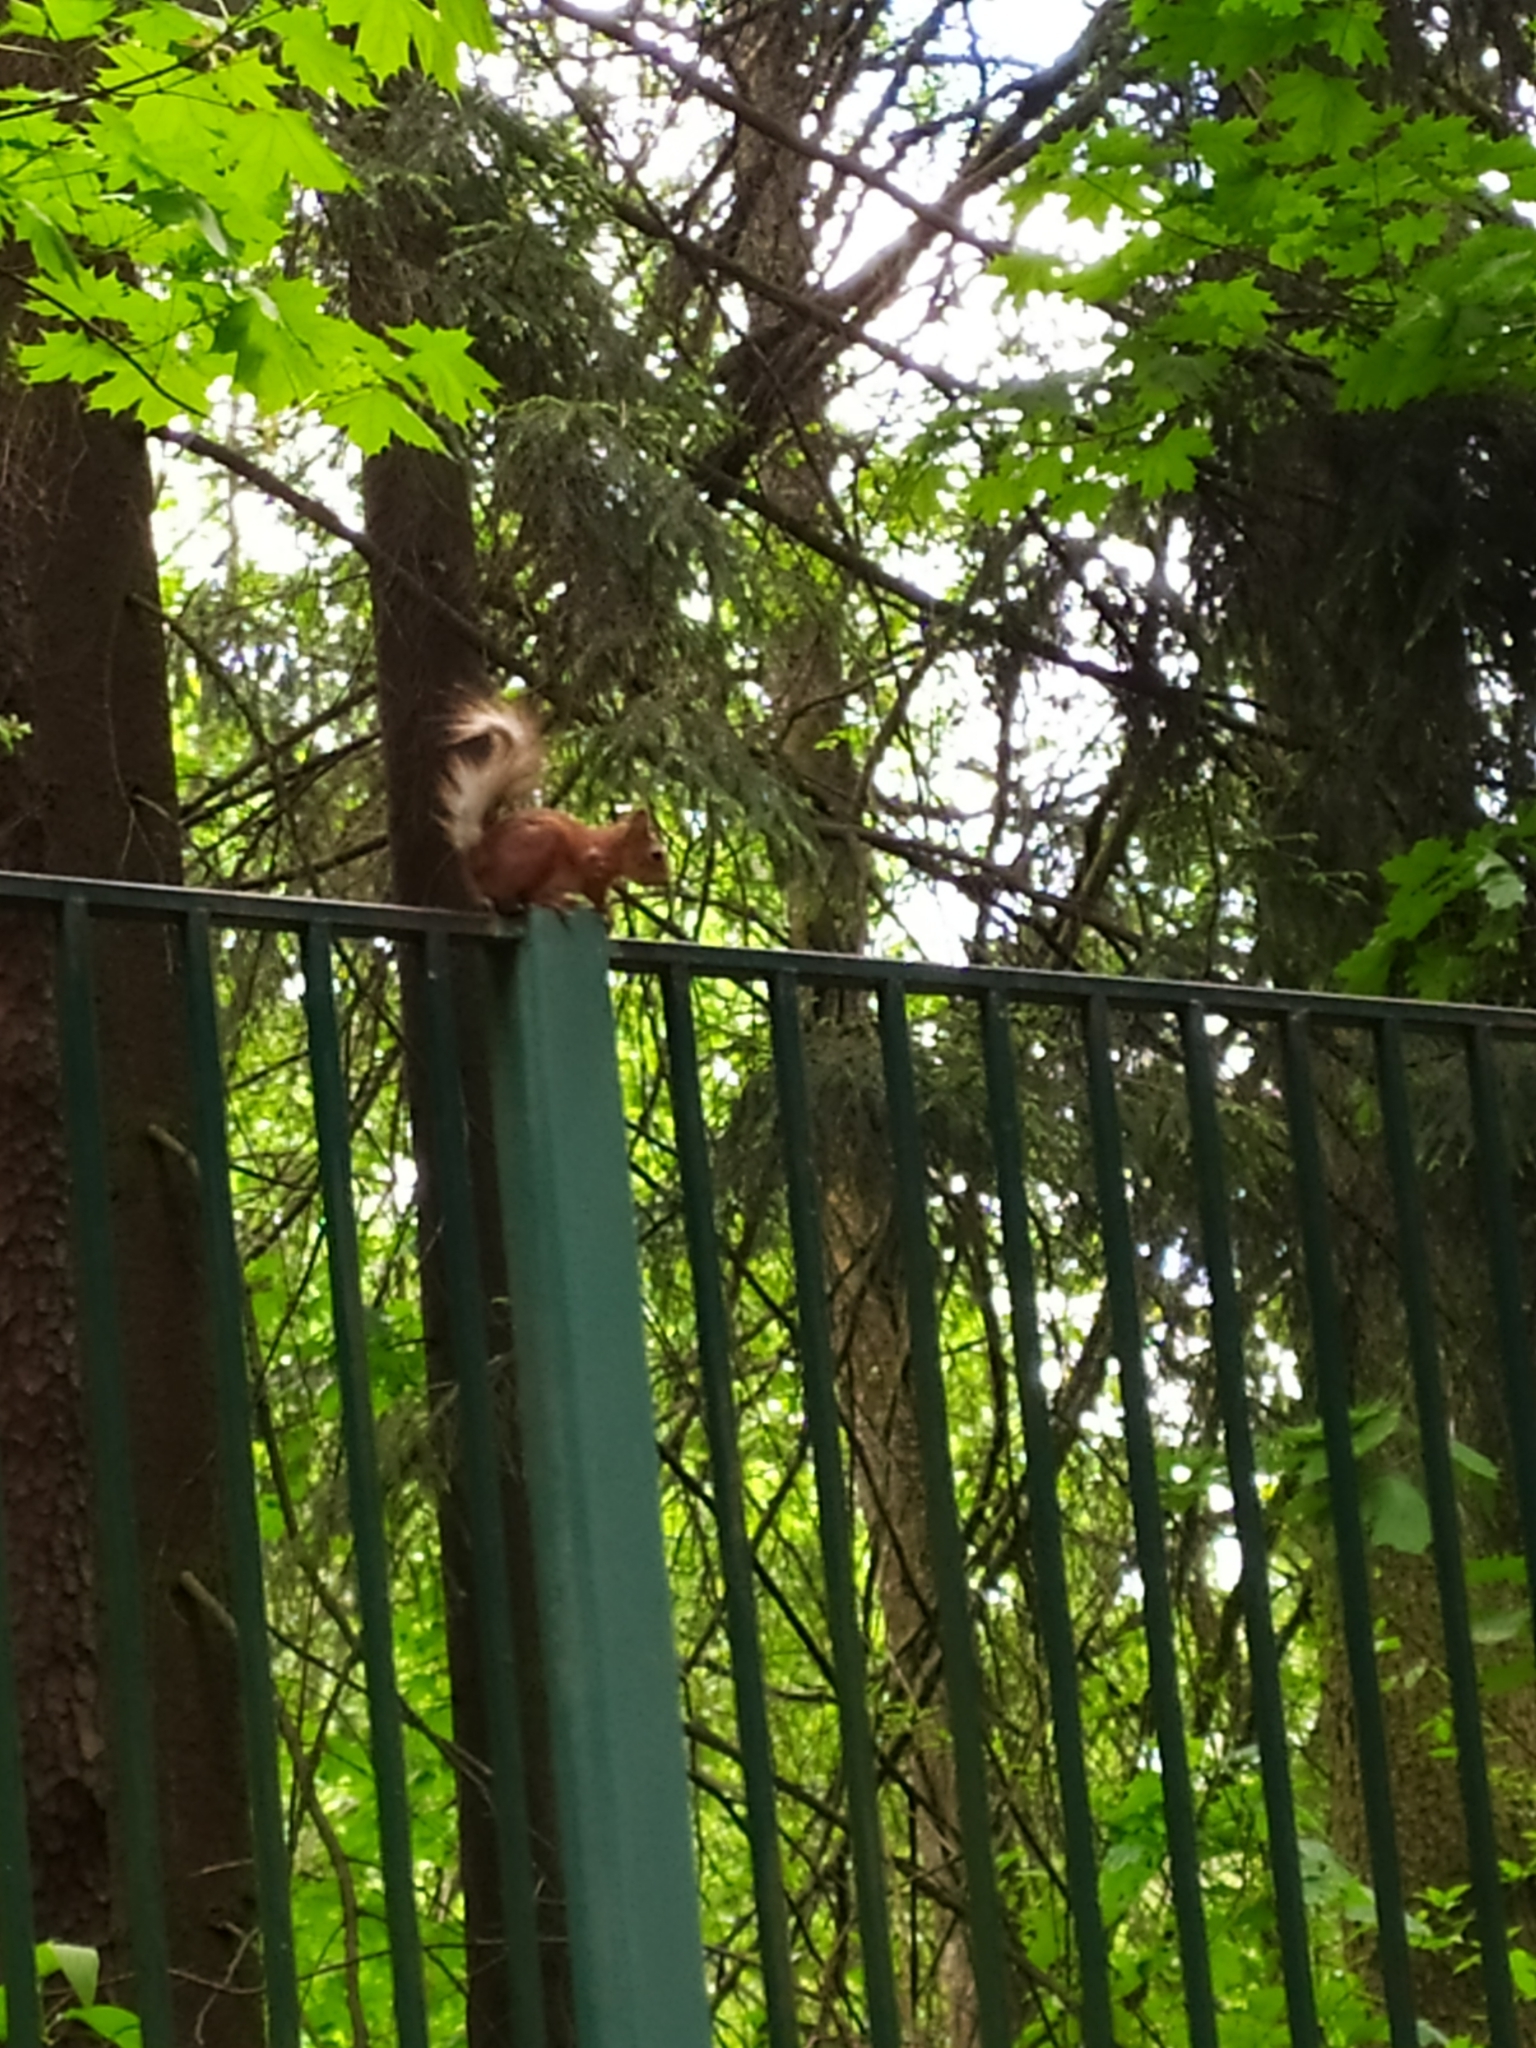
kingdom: Animalia
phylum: Chordata
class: Mammalia
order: Rodentia
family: Sciuridae
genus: Sciurus
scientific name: Sciurus vulgaris
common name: Eurasian red squirrel
